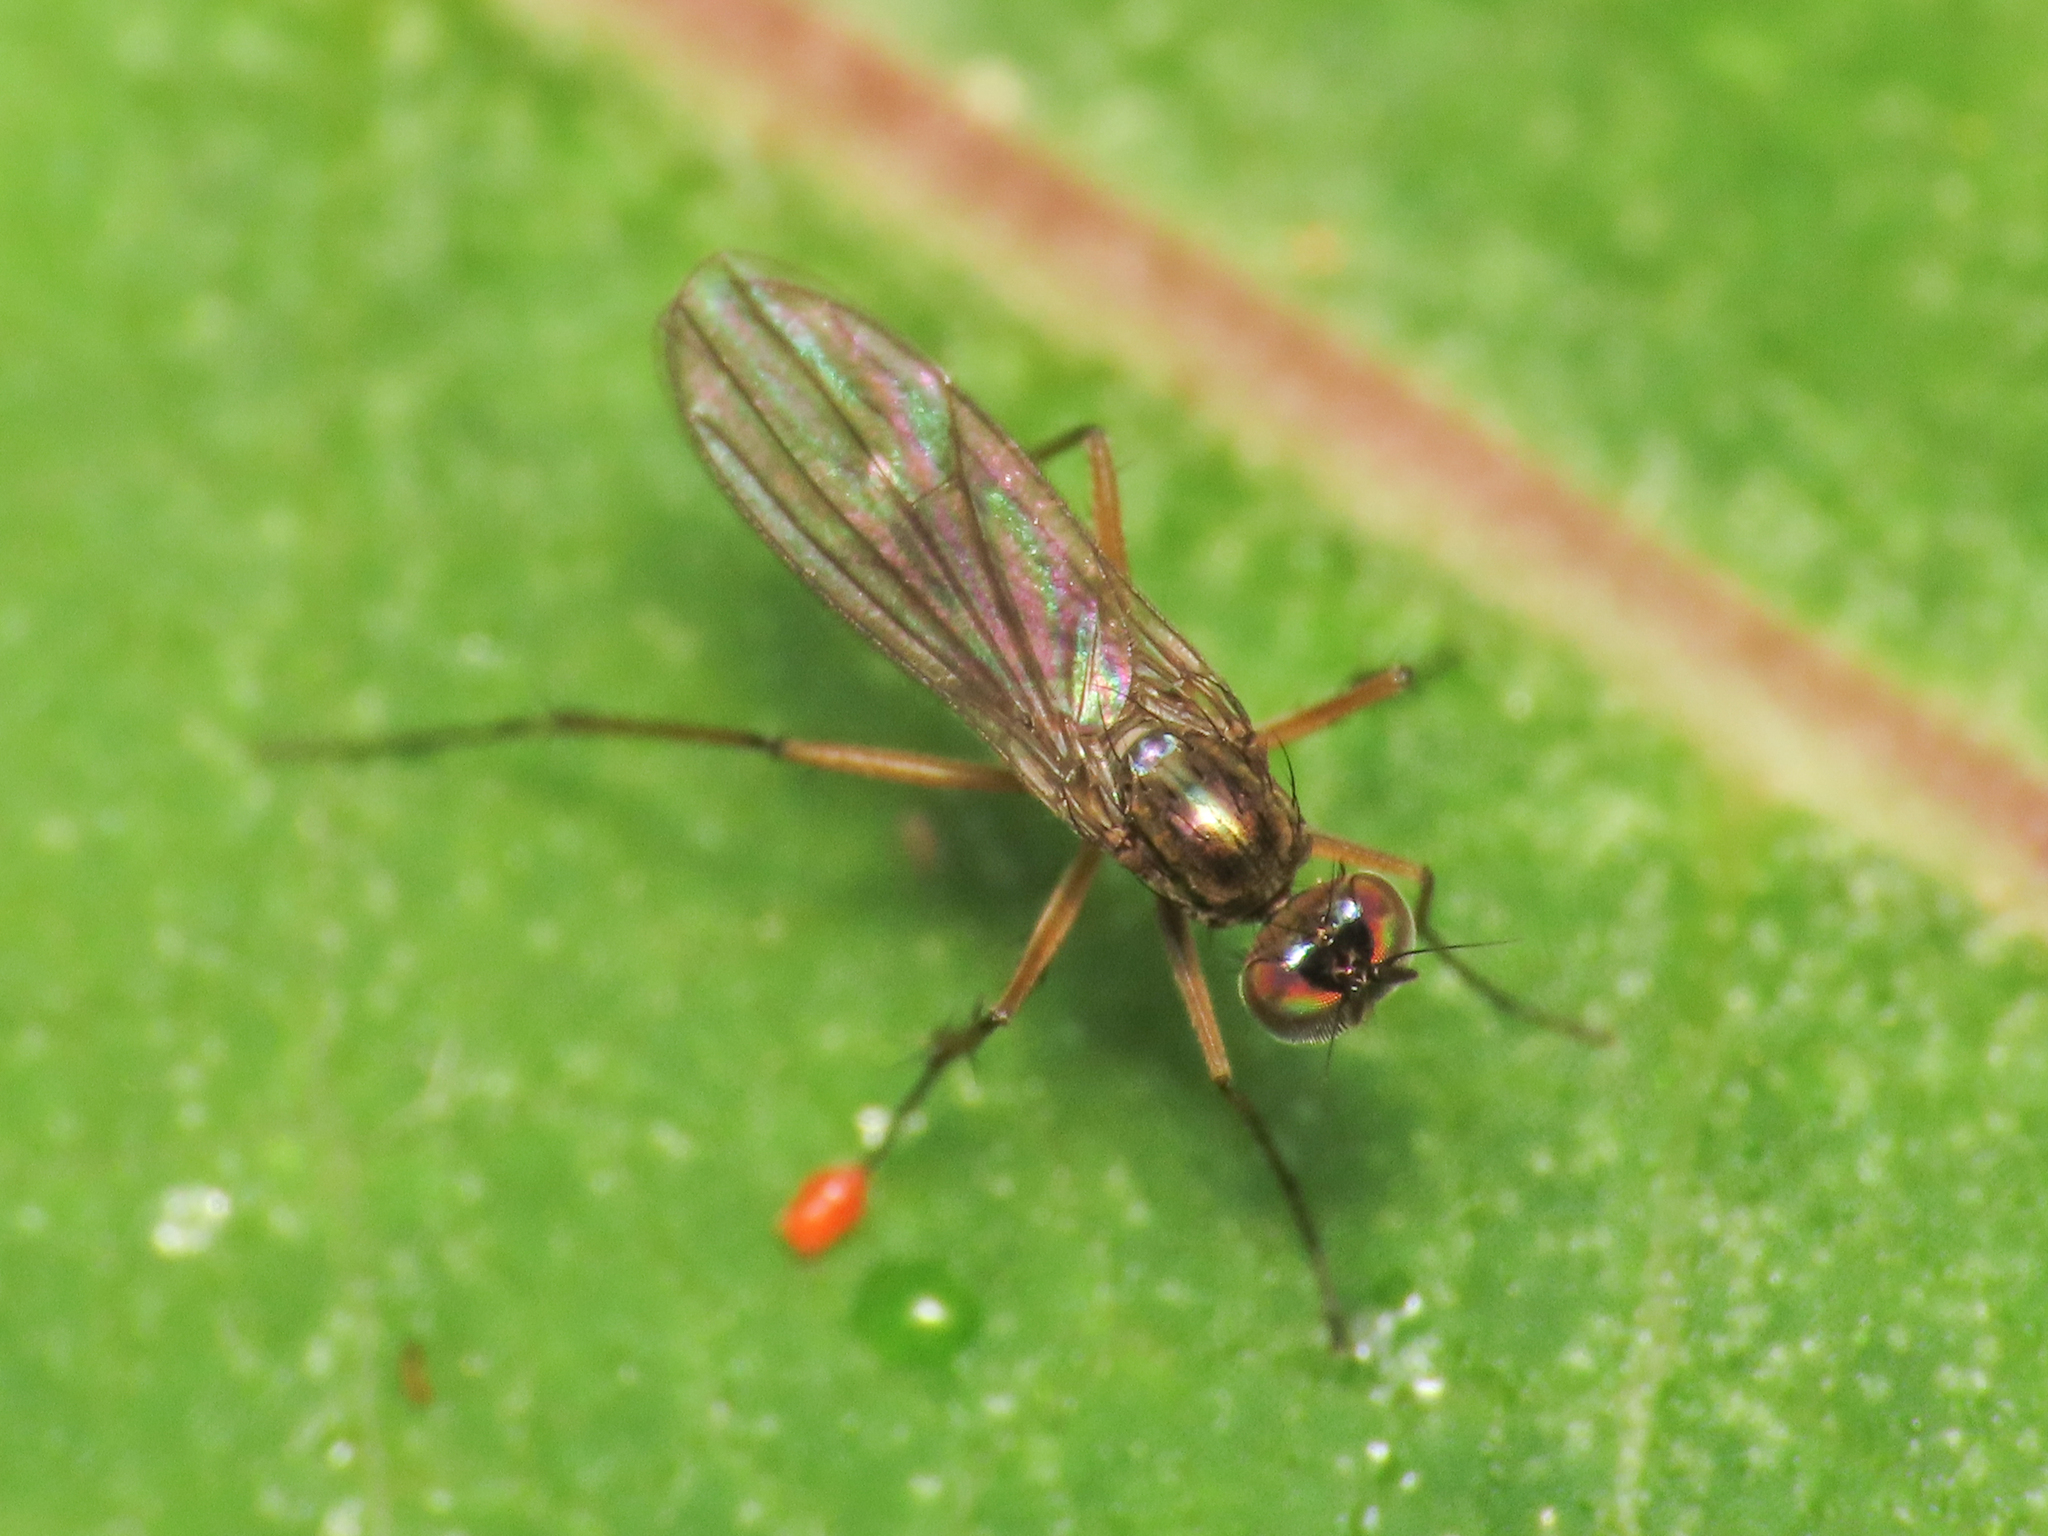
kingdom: Animalia
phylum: Arthropoda
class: Insecta
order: Diptera
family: Dolichopodidae
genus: Campsicnemus
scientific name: Campsicnemus curvipes
